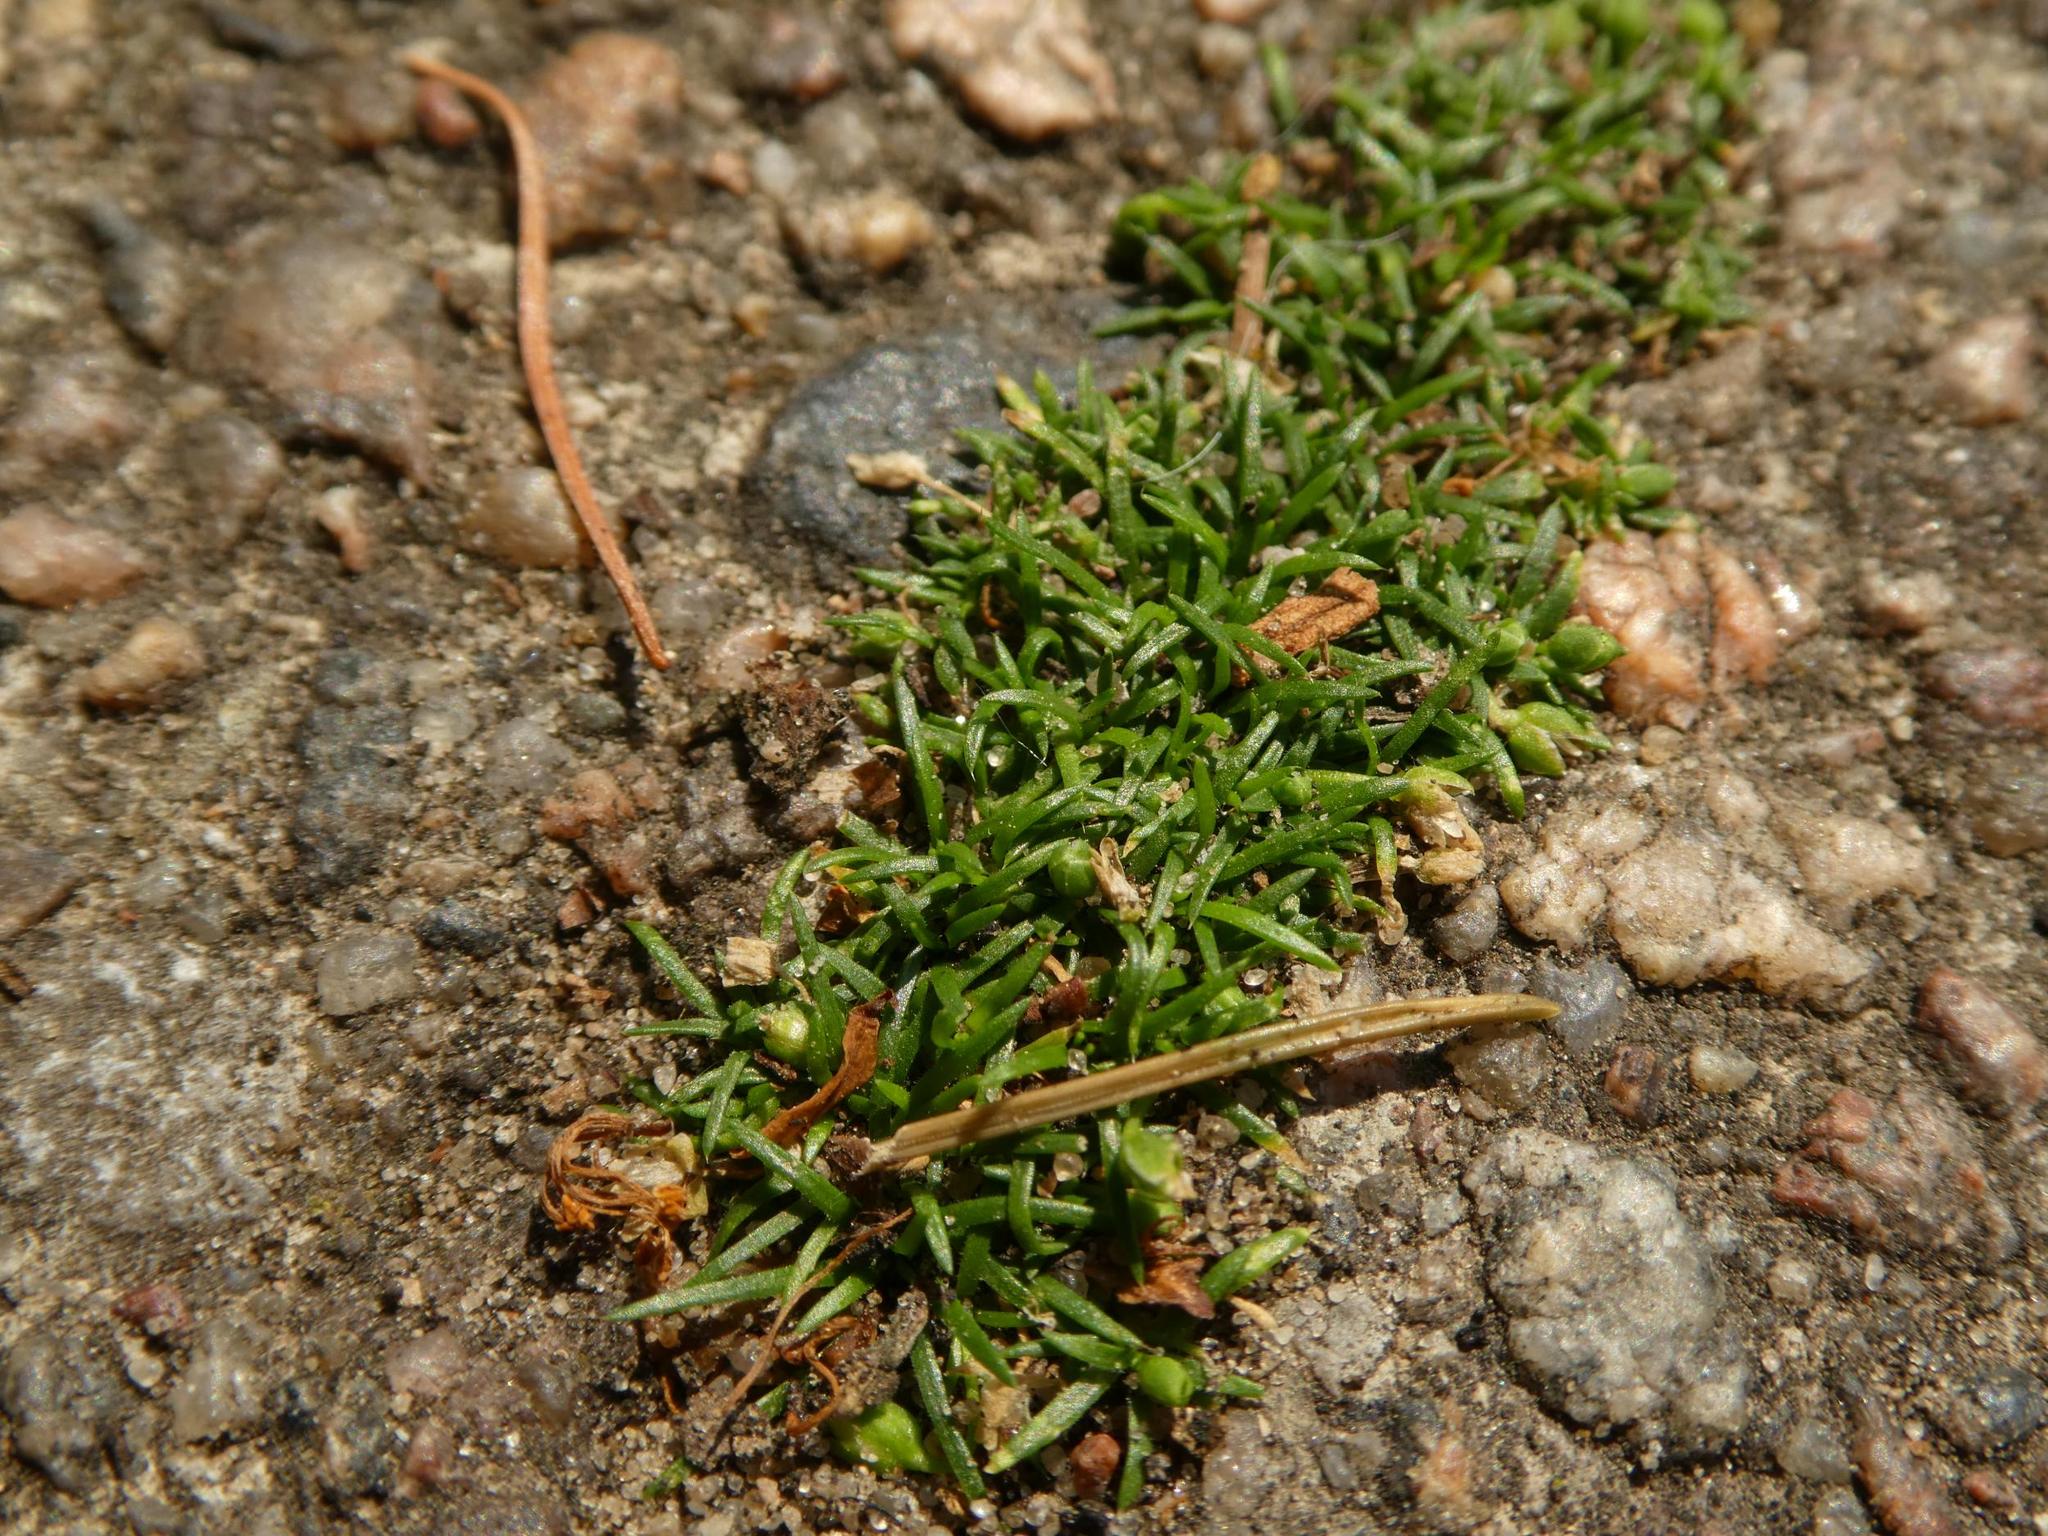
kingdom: Plantae
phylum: Tracheophyta
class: Magnoliopsida
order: Caryophyllales
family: Caryophyllaceae
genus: Sagina
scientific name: Sagina procumbens
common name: Procumbent pearlwort
